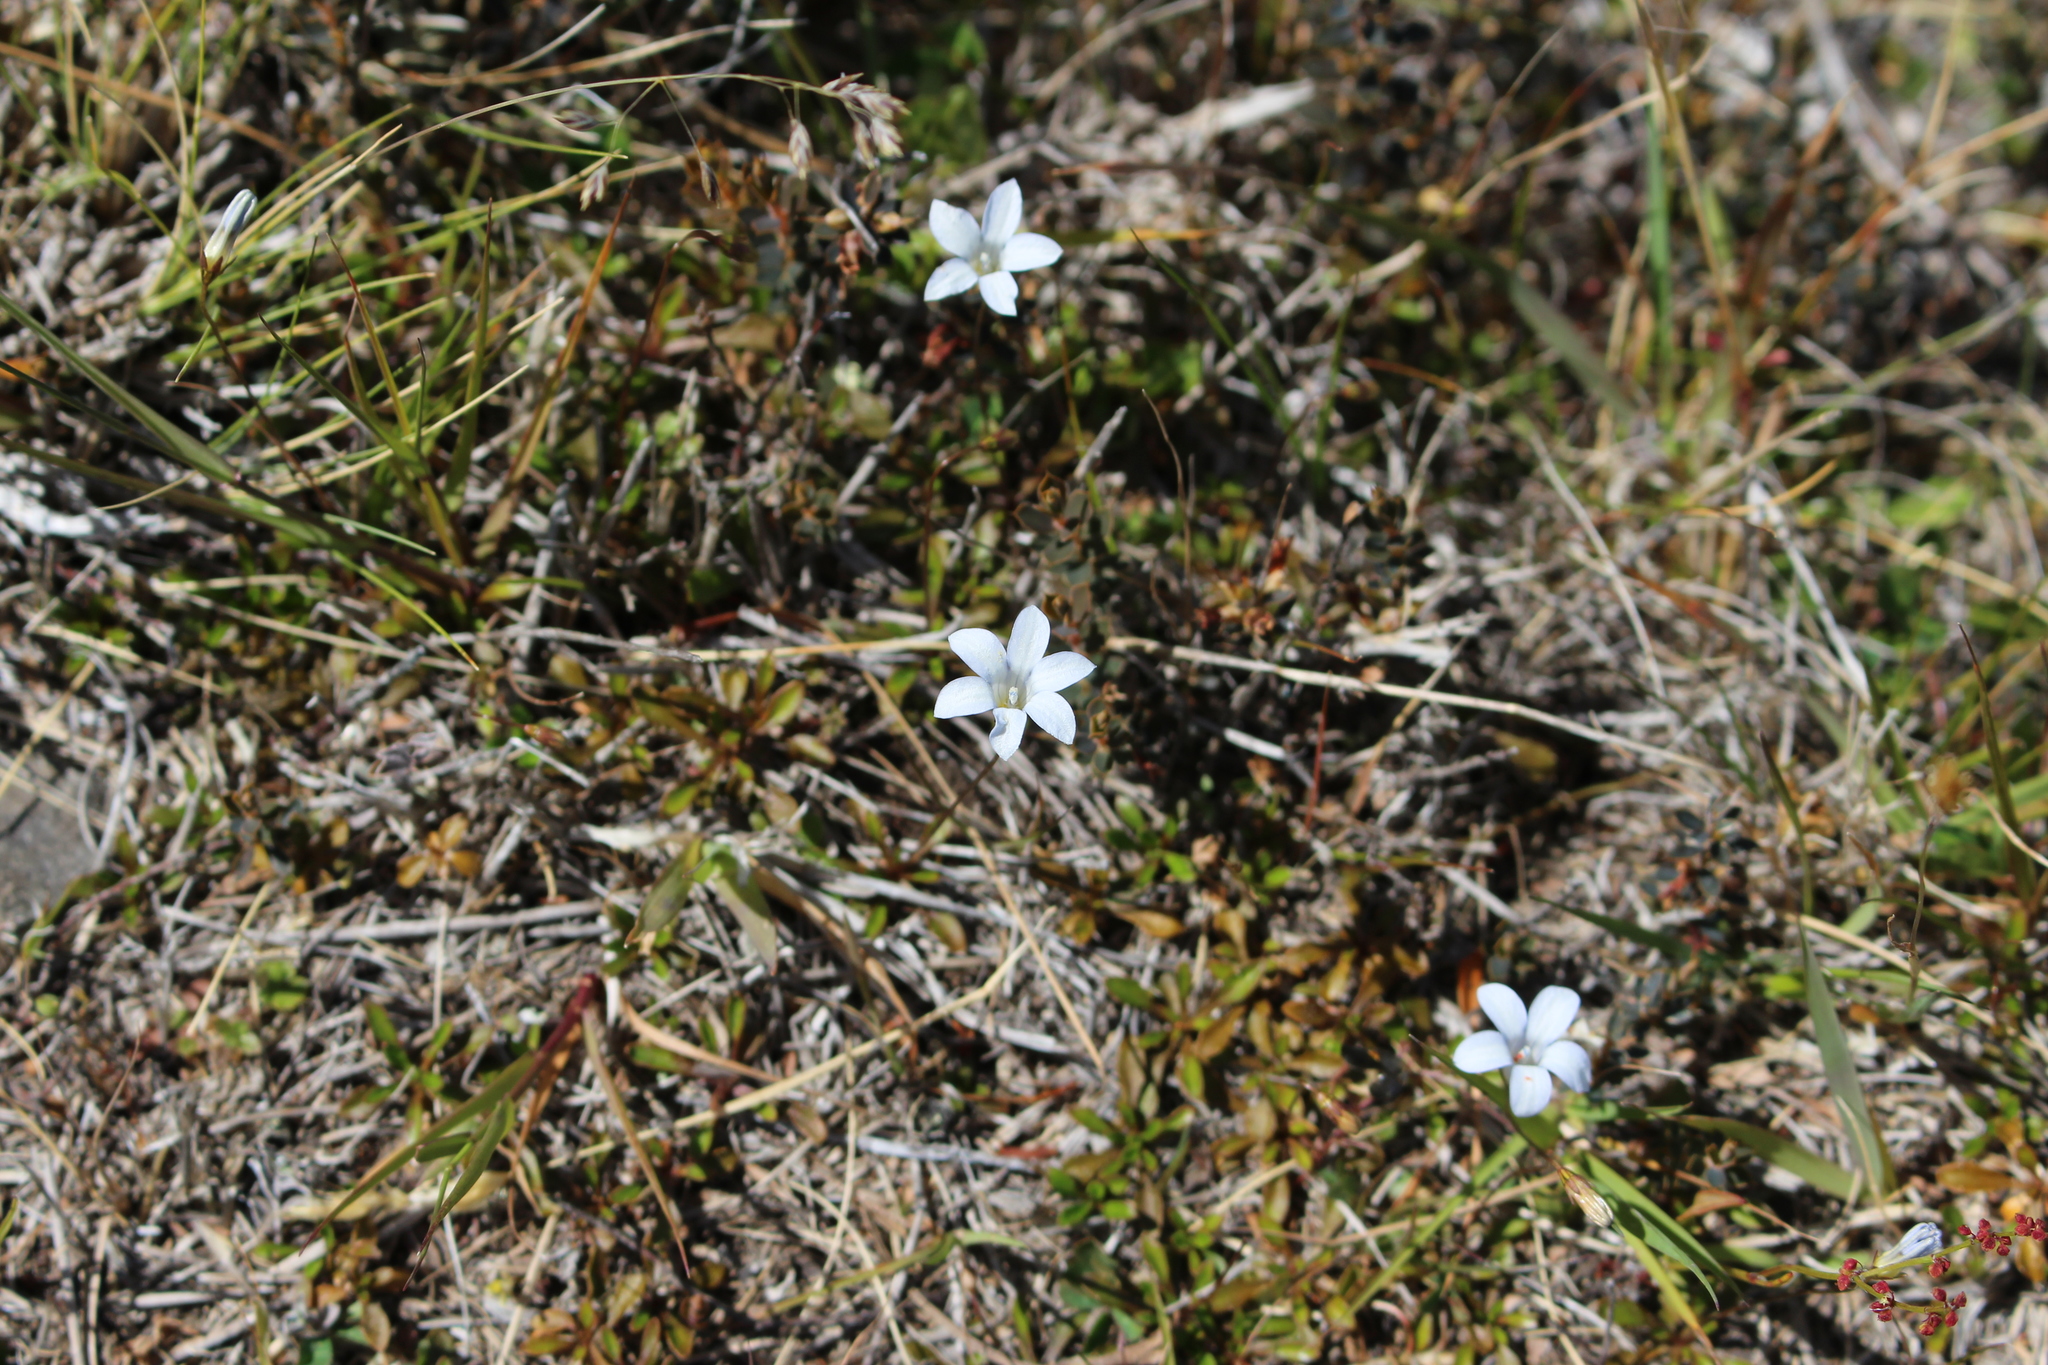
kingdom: Plantae
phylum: Tracheophyta
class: Magnoliopsida
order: Asterales
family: Campanulaceae
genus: Wahlenbergia
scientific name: Wahlenbergia albomarginata
